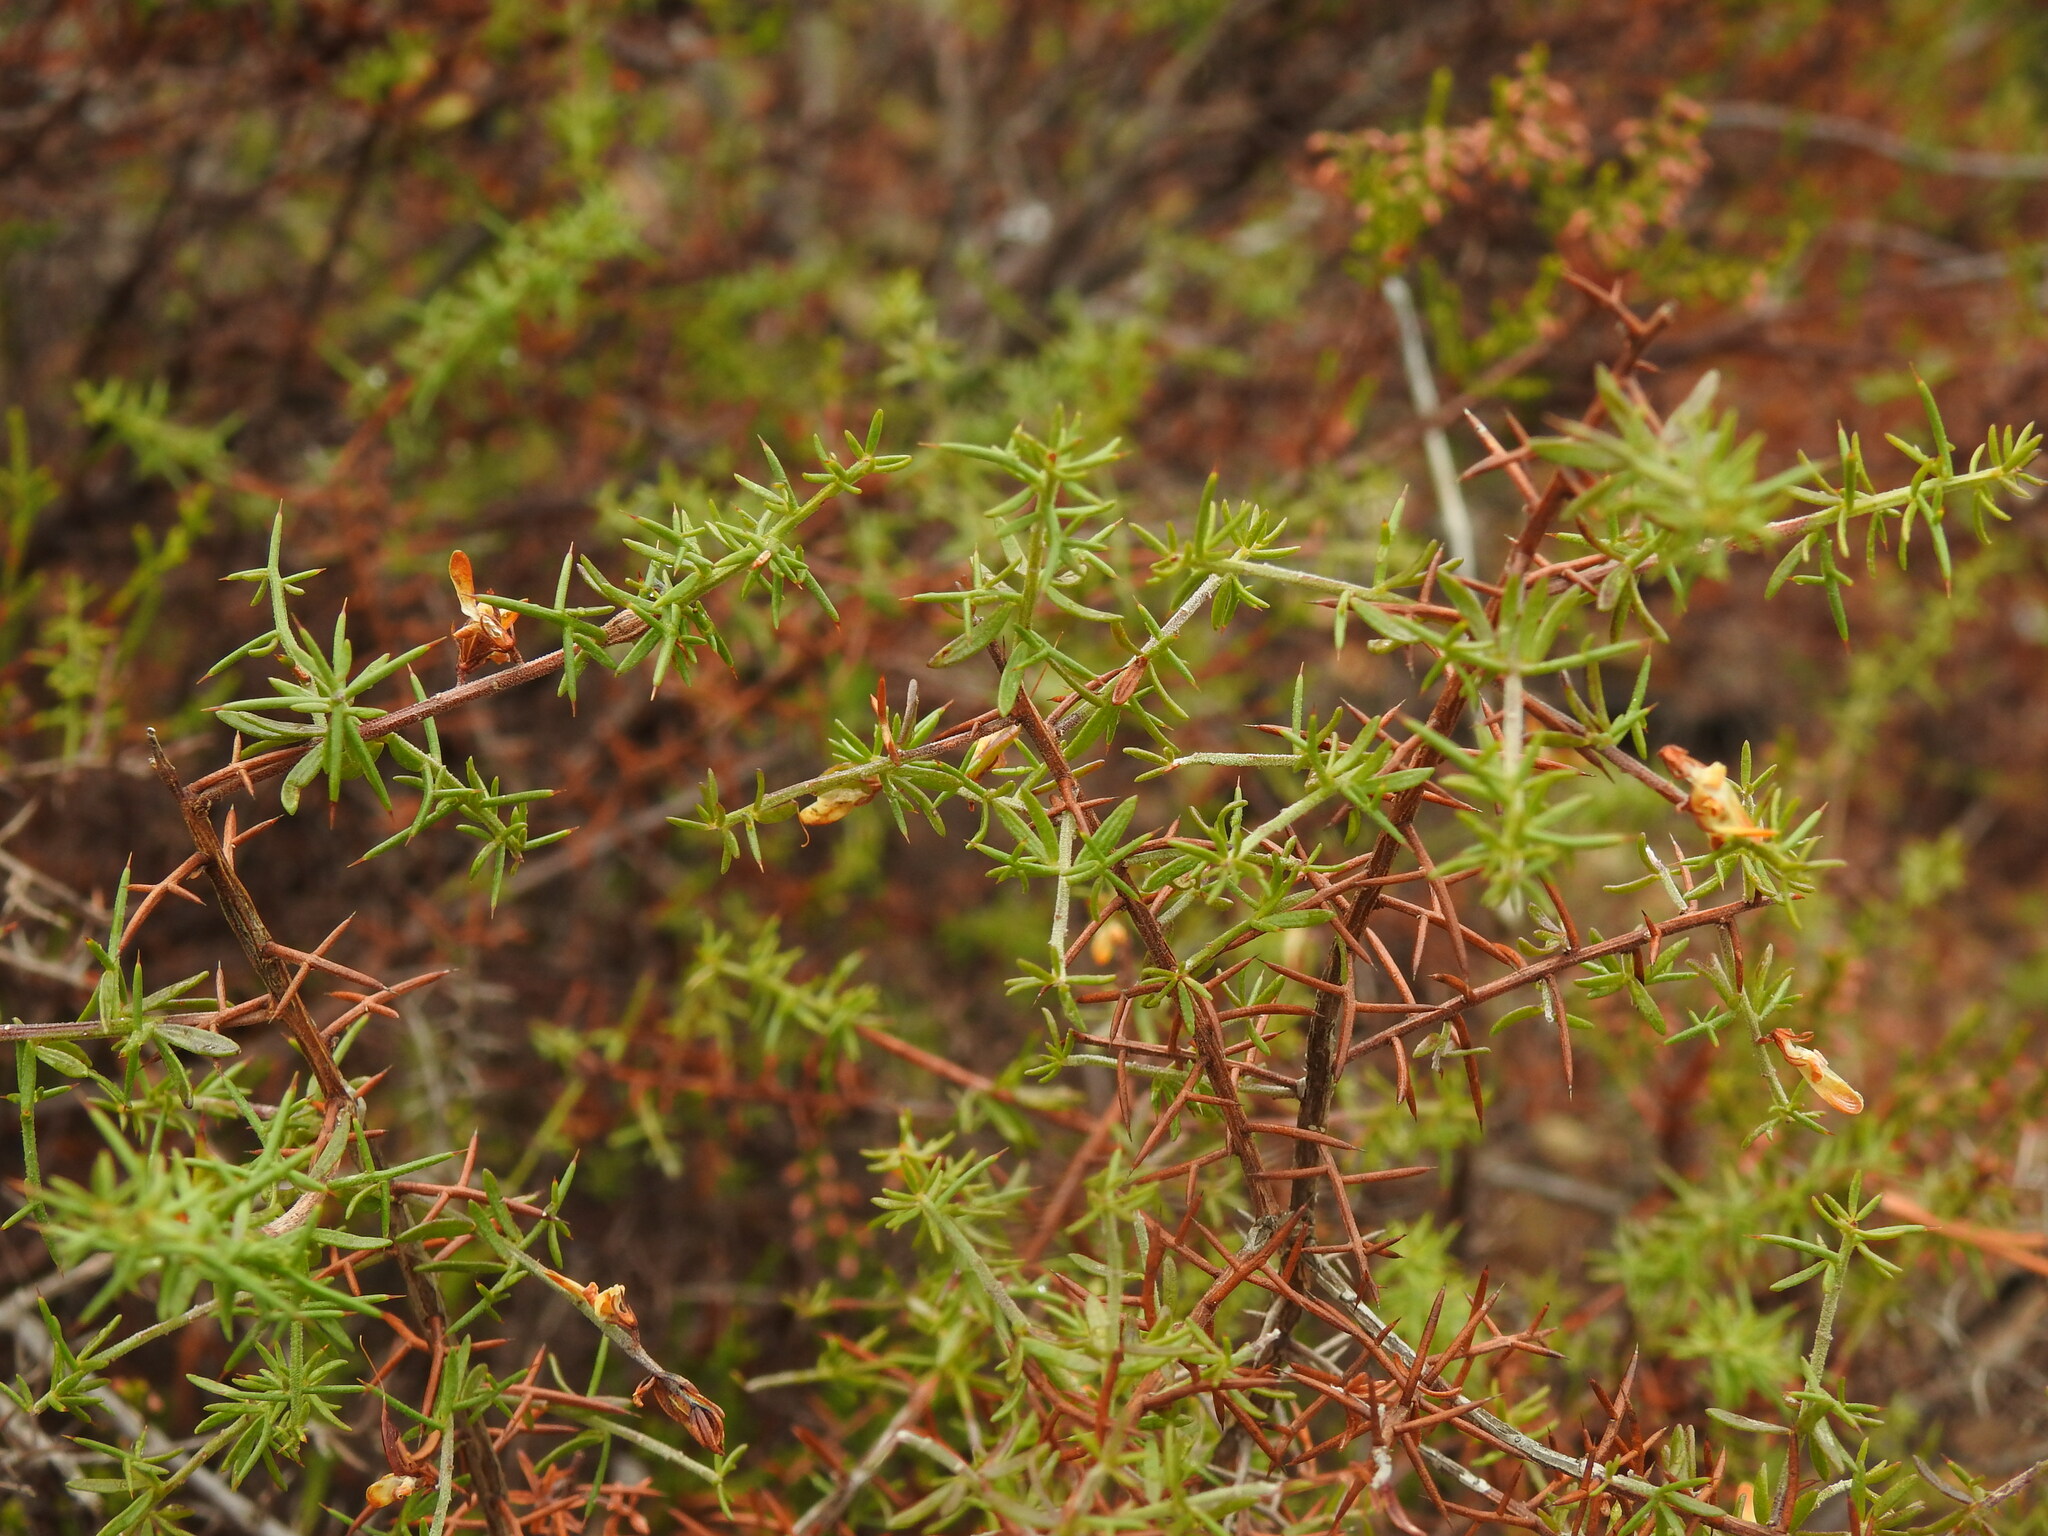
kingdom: Plantae
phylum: Tracheophyta
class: Magnoliopsida
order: Fabales
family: Fabaceae
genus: Genista
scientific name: Genista triacanthos
